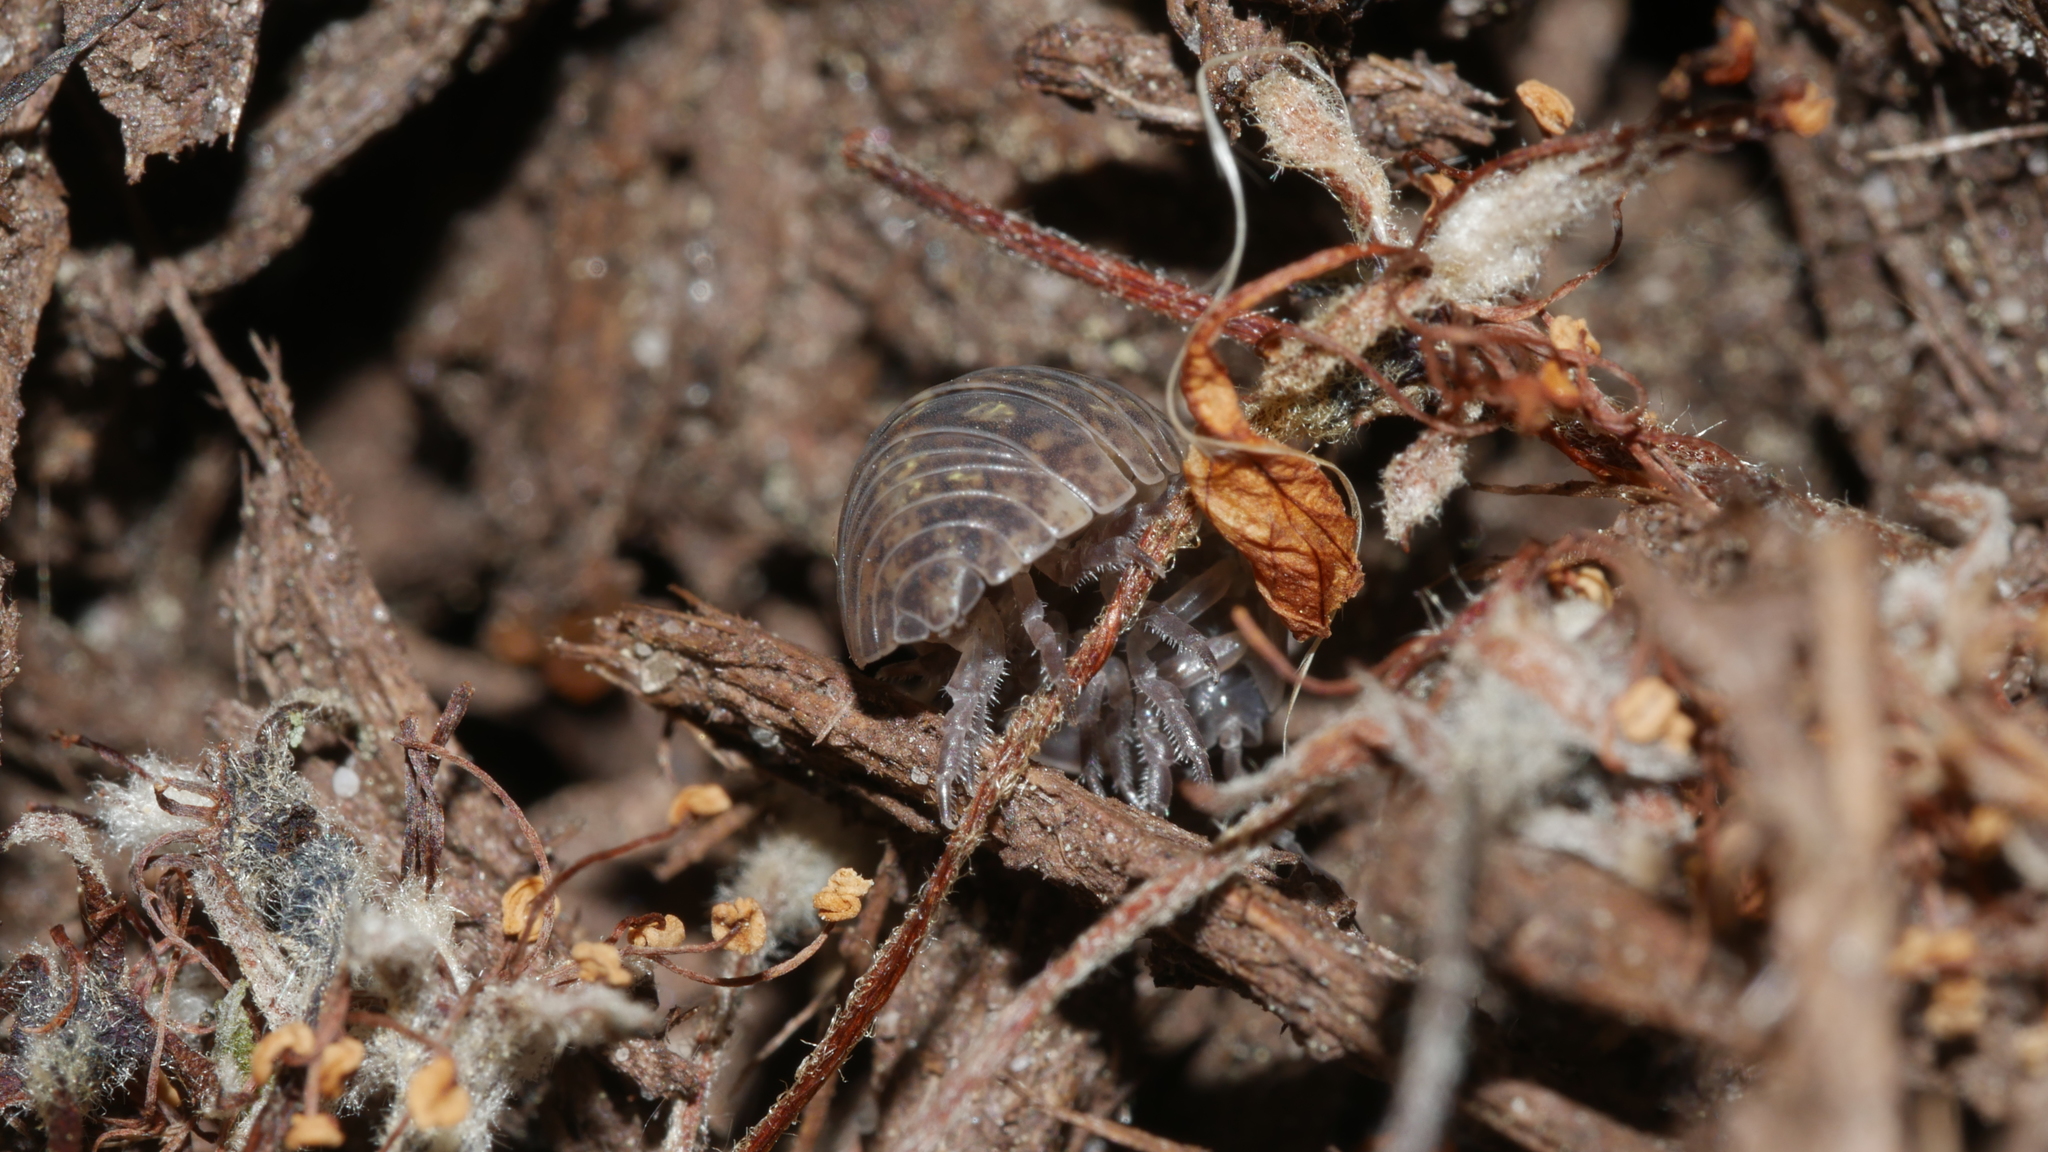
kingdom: Animalia
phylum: Arthropoda
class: Malacostraca
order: Isopoda
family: Armadillidiidae
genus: Armadillidium
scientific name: Armadillidium vulgare
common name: Common pill woodlouse
